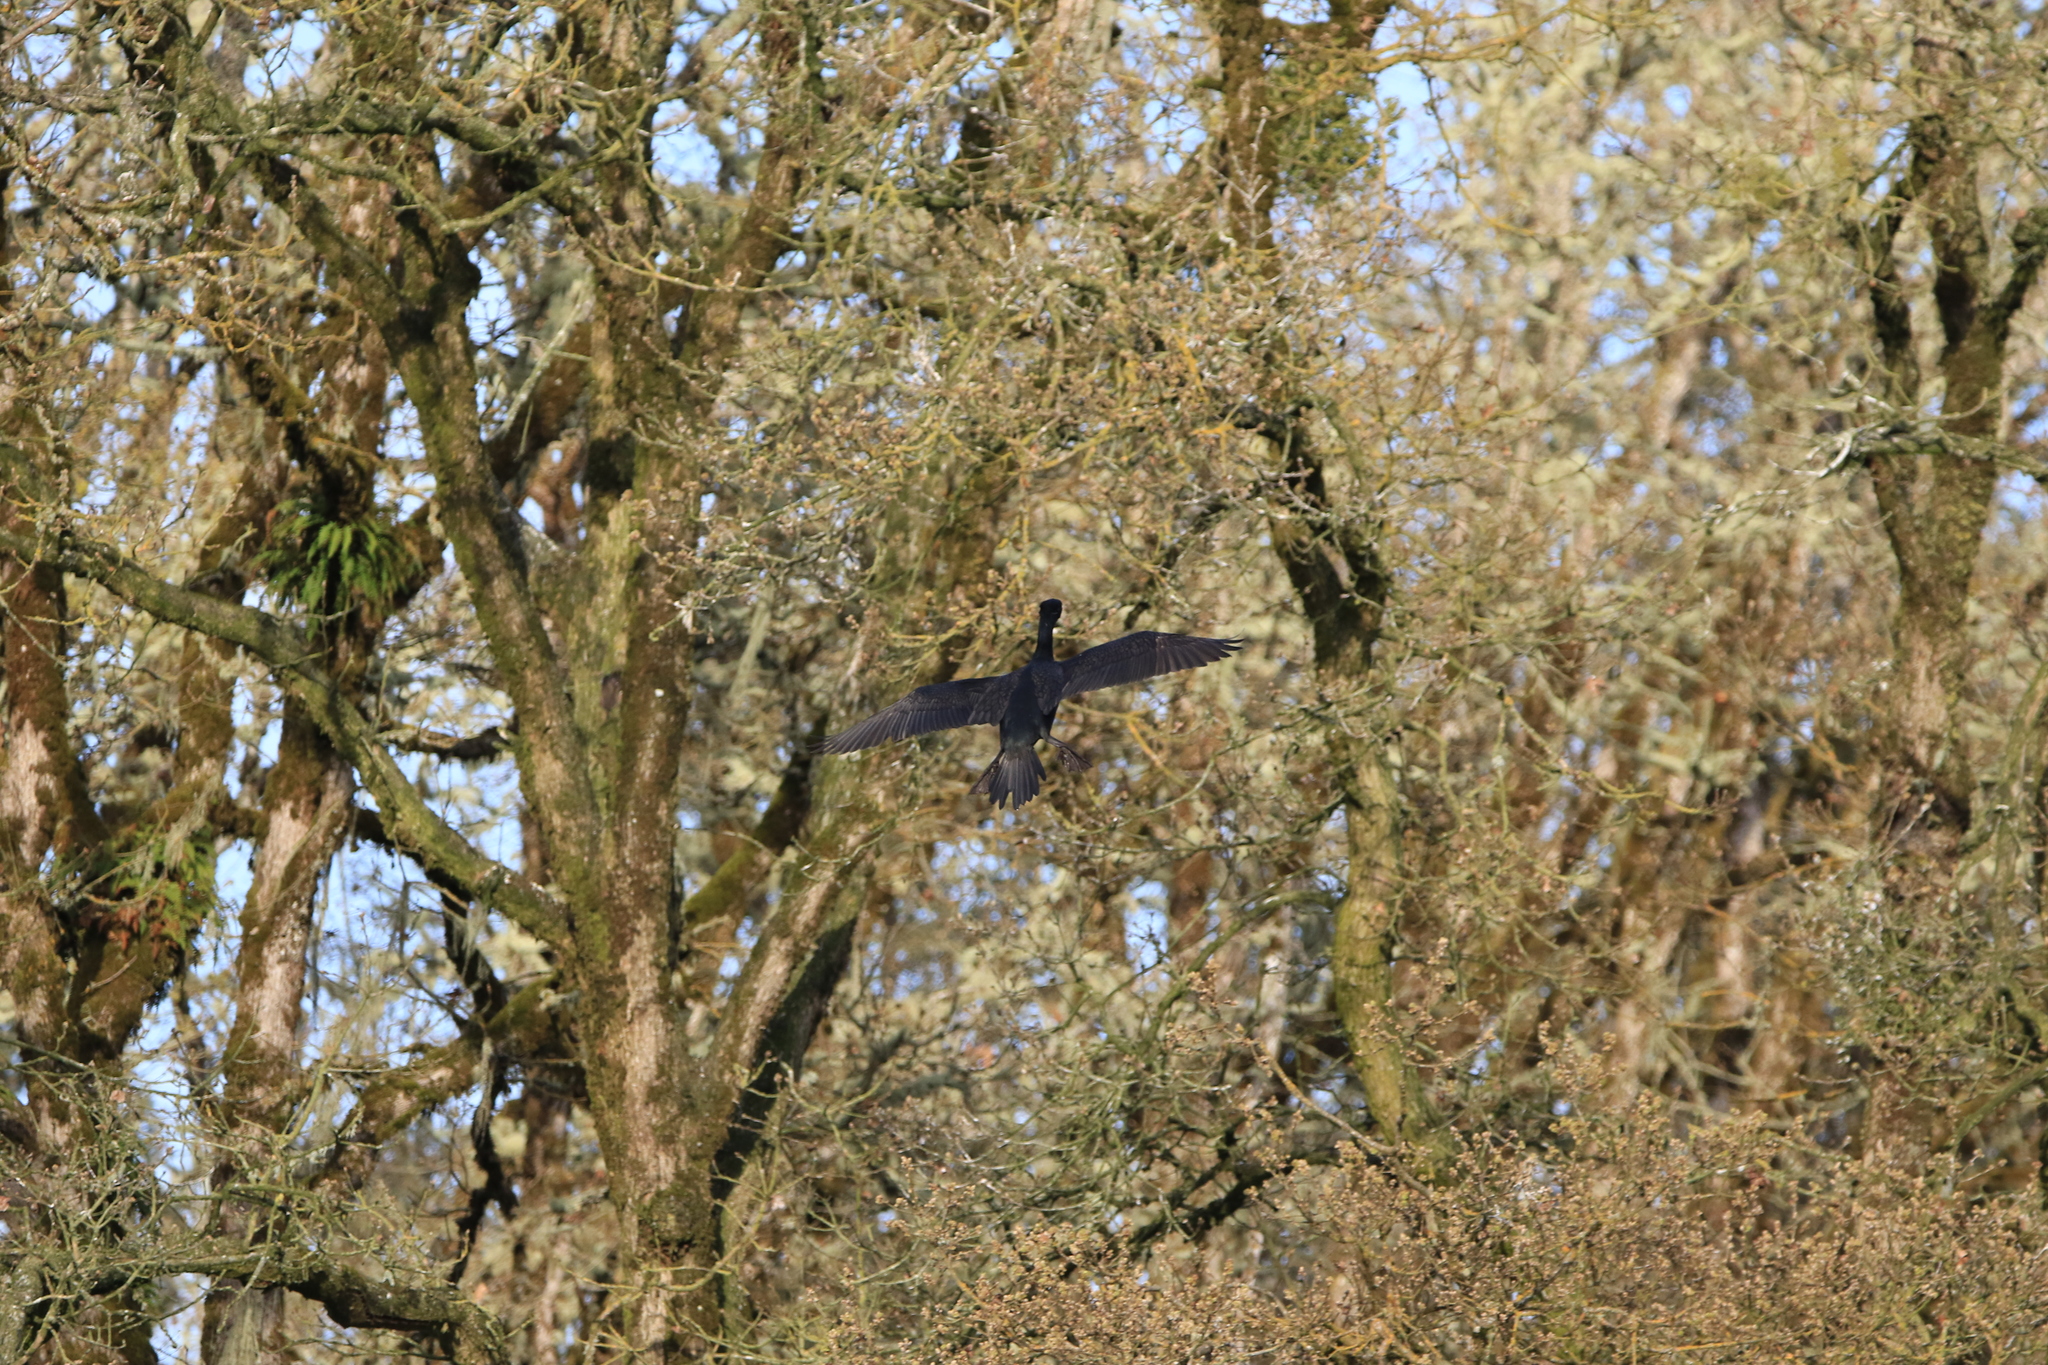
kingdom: Animalia
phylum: Chordata
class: Aves
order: Suliformes
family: Phalacrocoracidae
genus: Phalacrocorax
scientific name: Phalacrocorax auritus
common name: Double-crested cormorant
